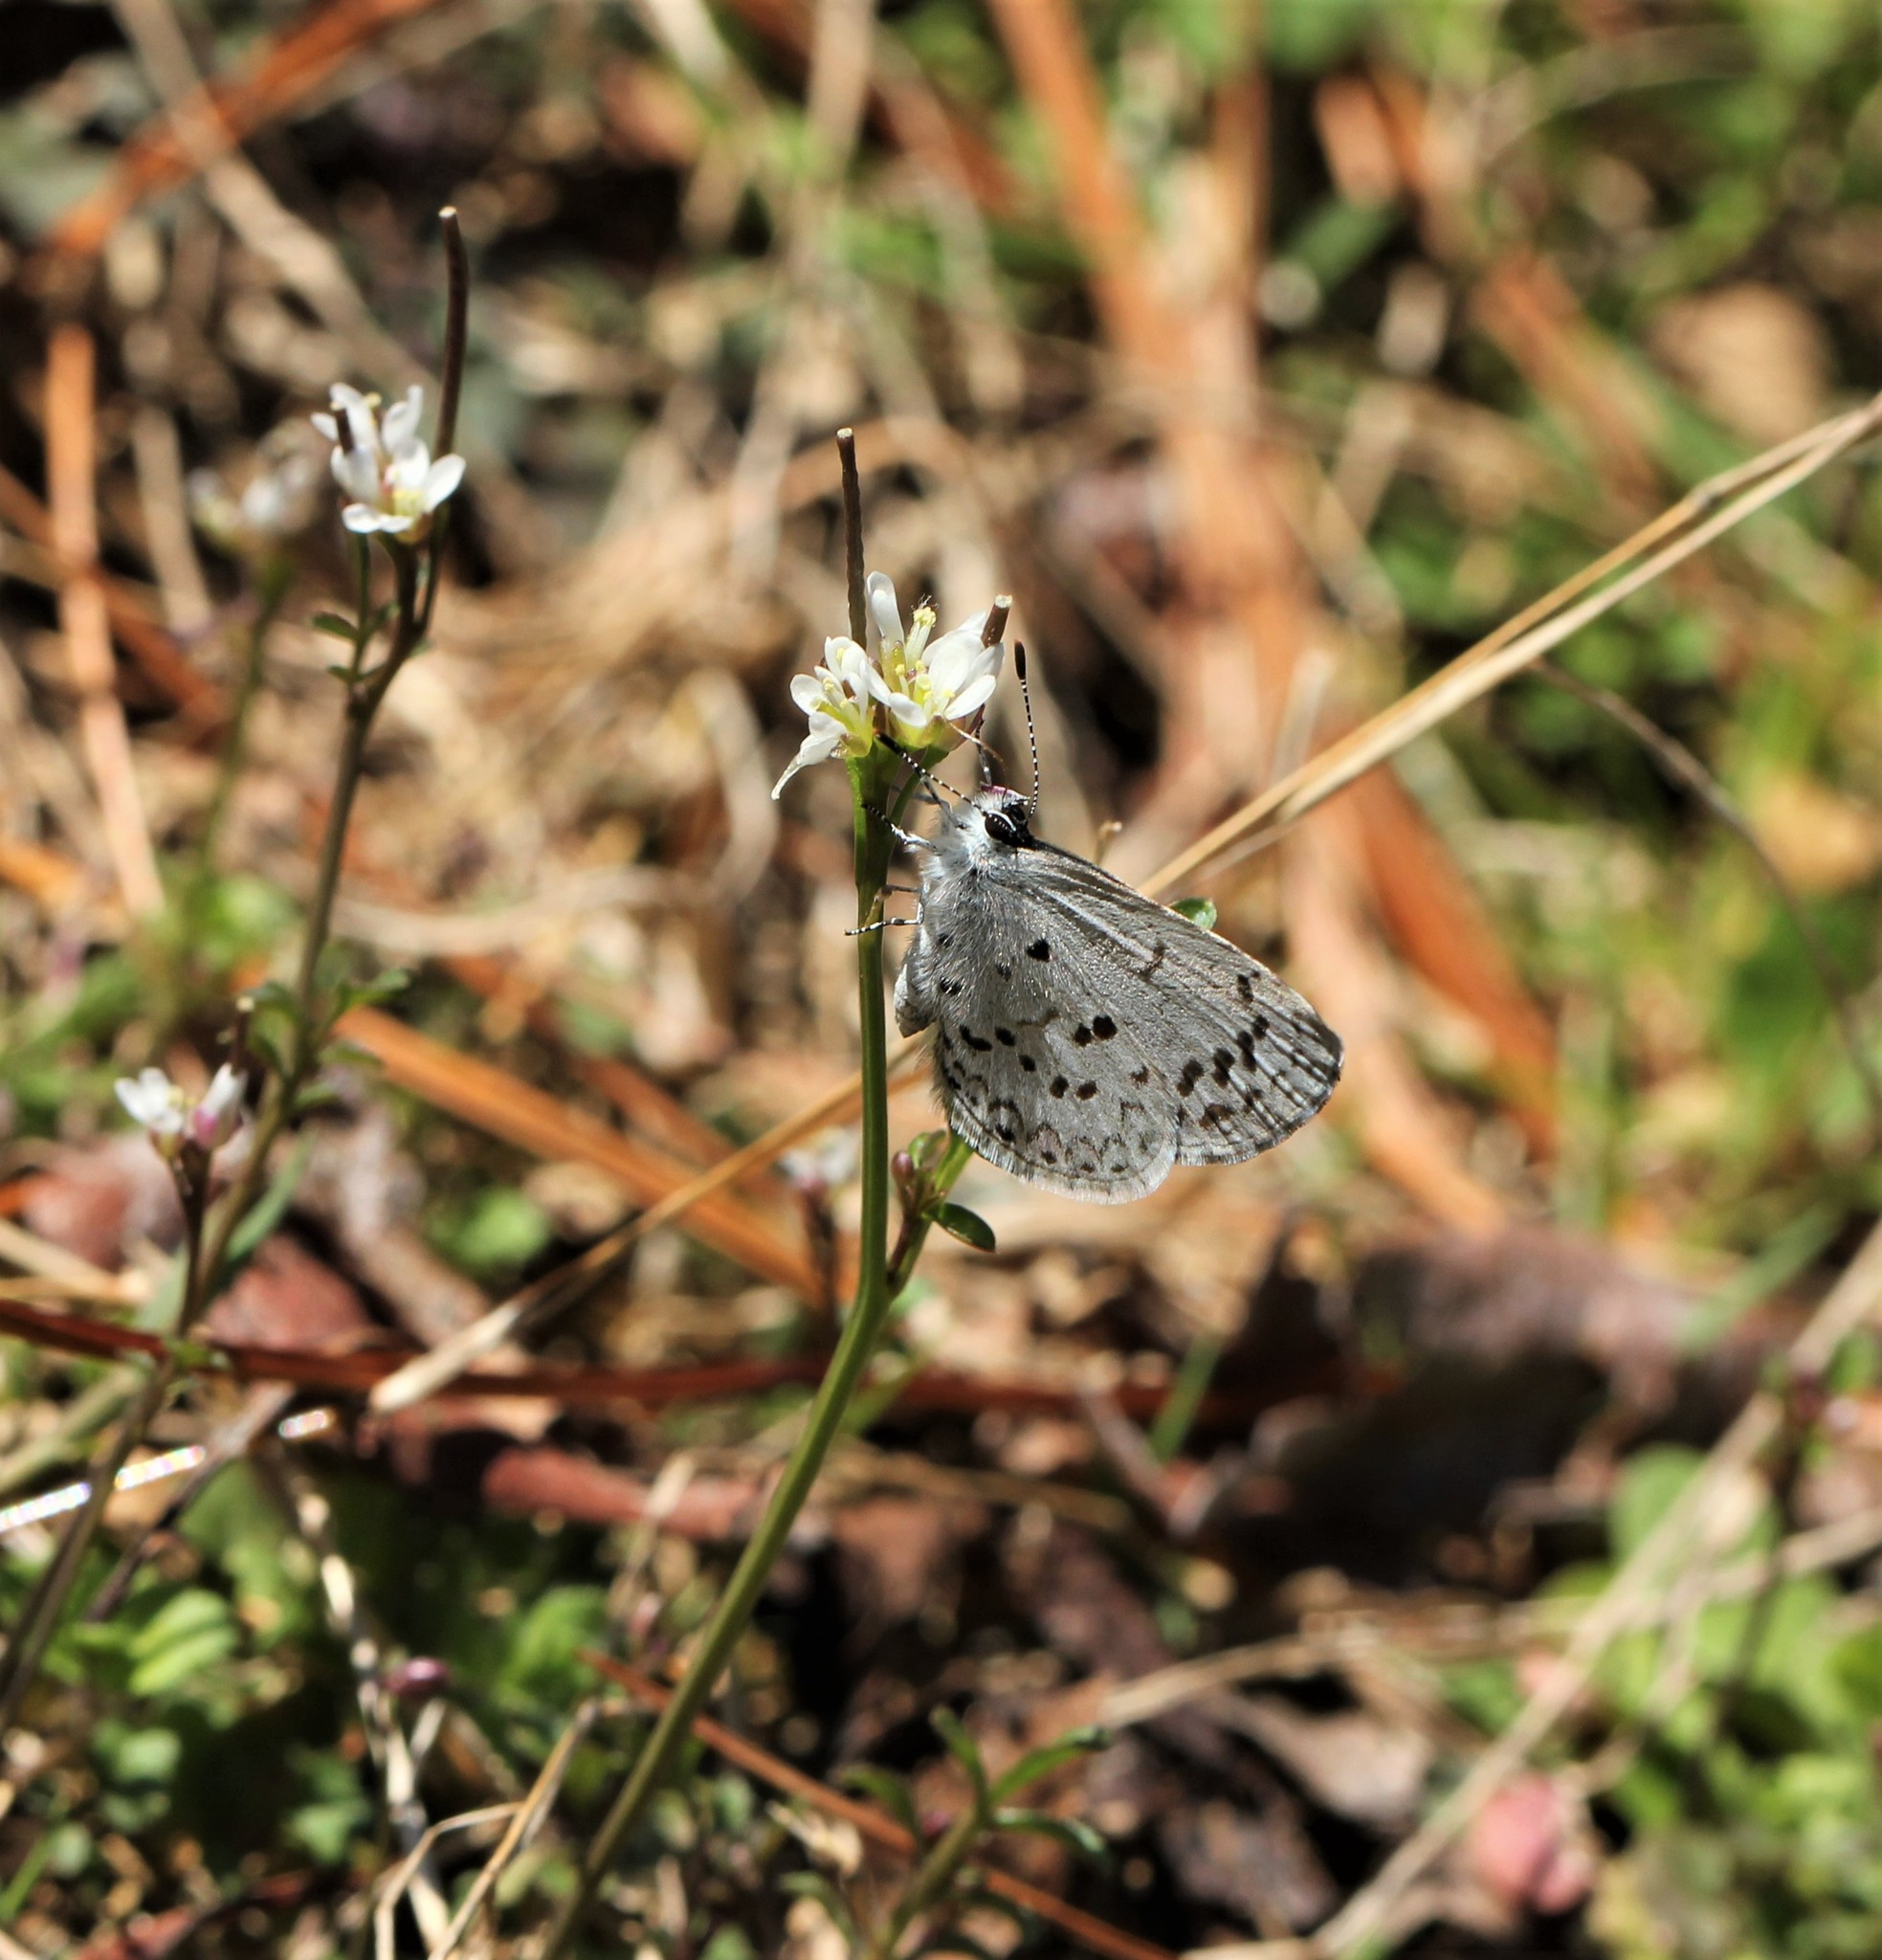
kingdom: Animalia
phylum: Arthropoda
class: Insecta
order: Lepidoptera
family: Lycaenidae
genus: Cyaniris
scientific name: Cyaniris neglecta
